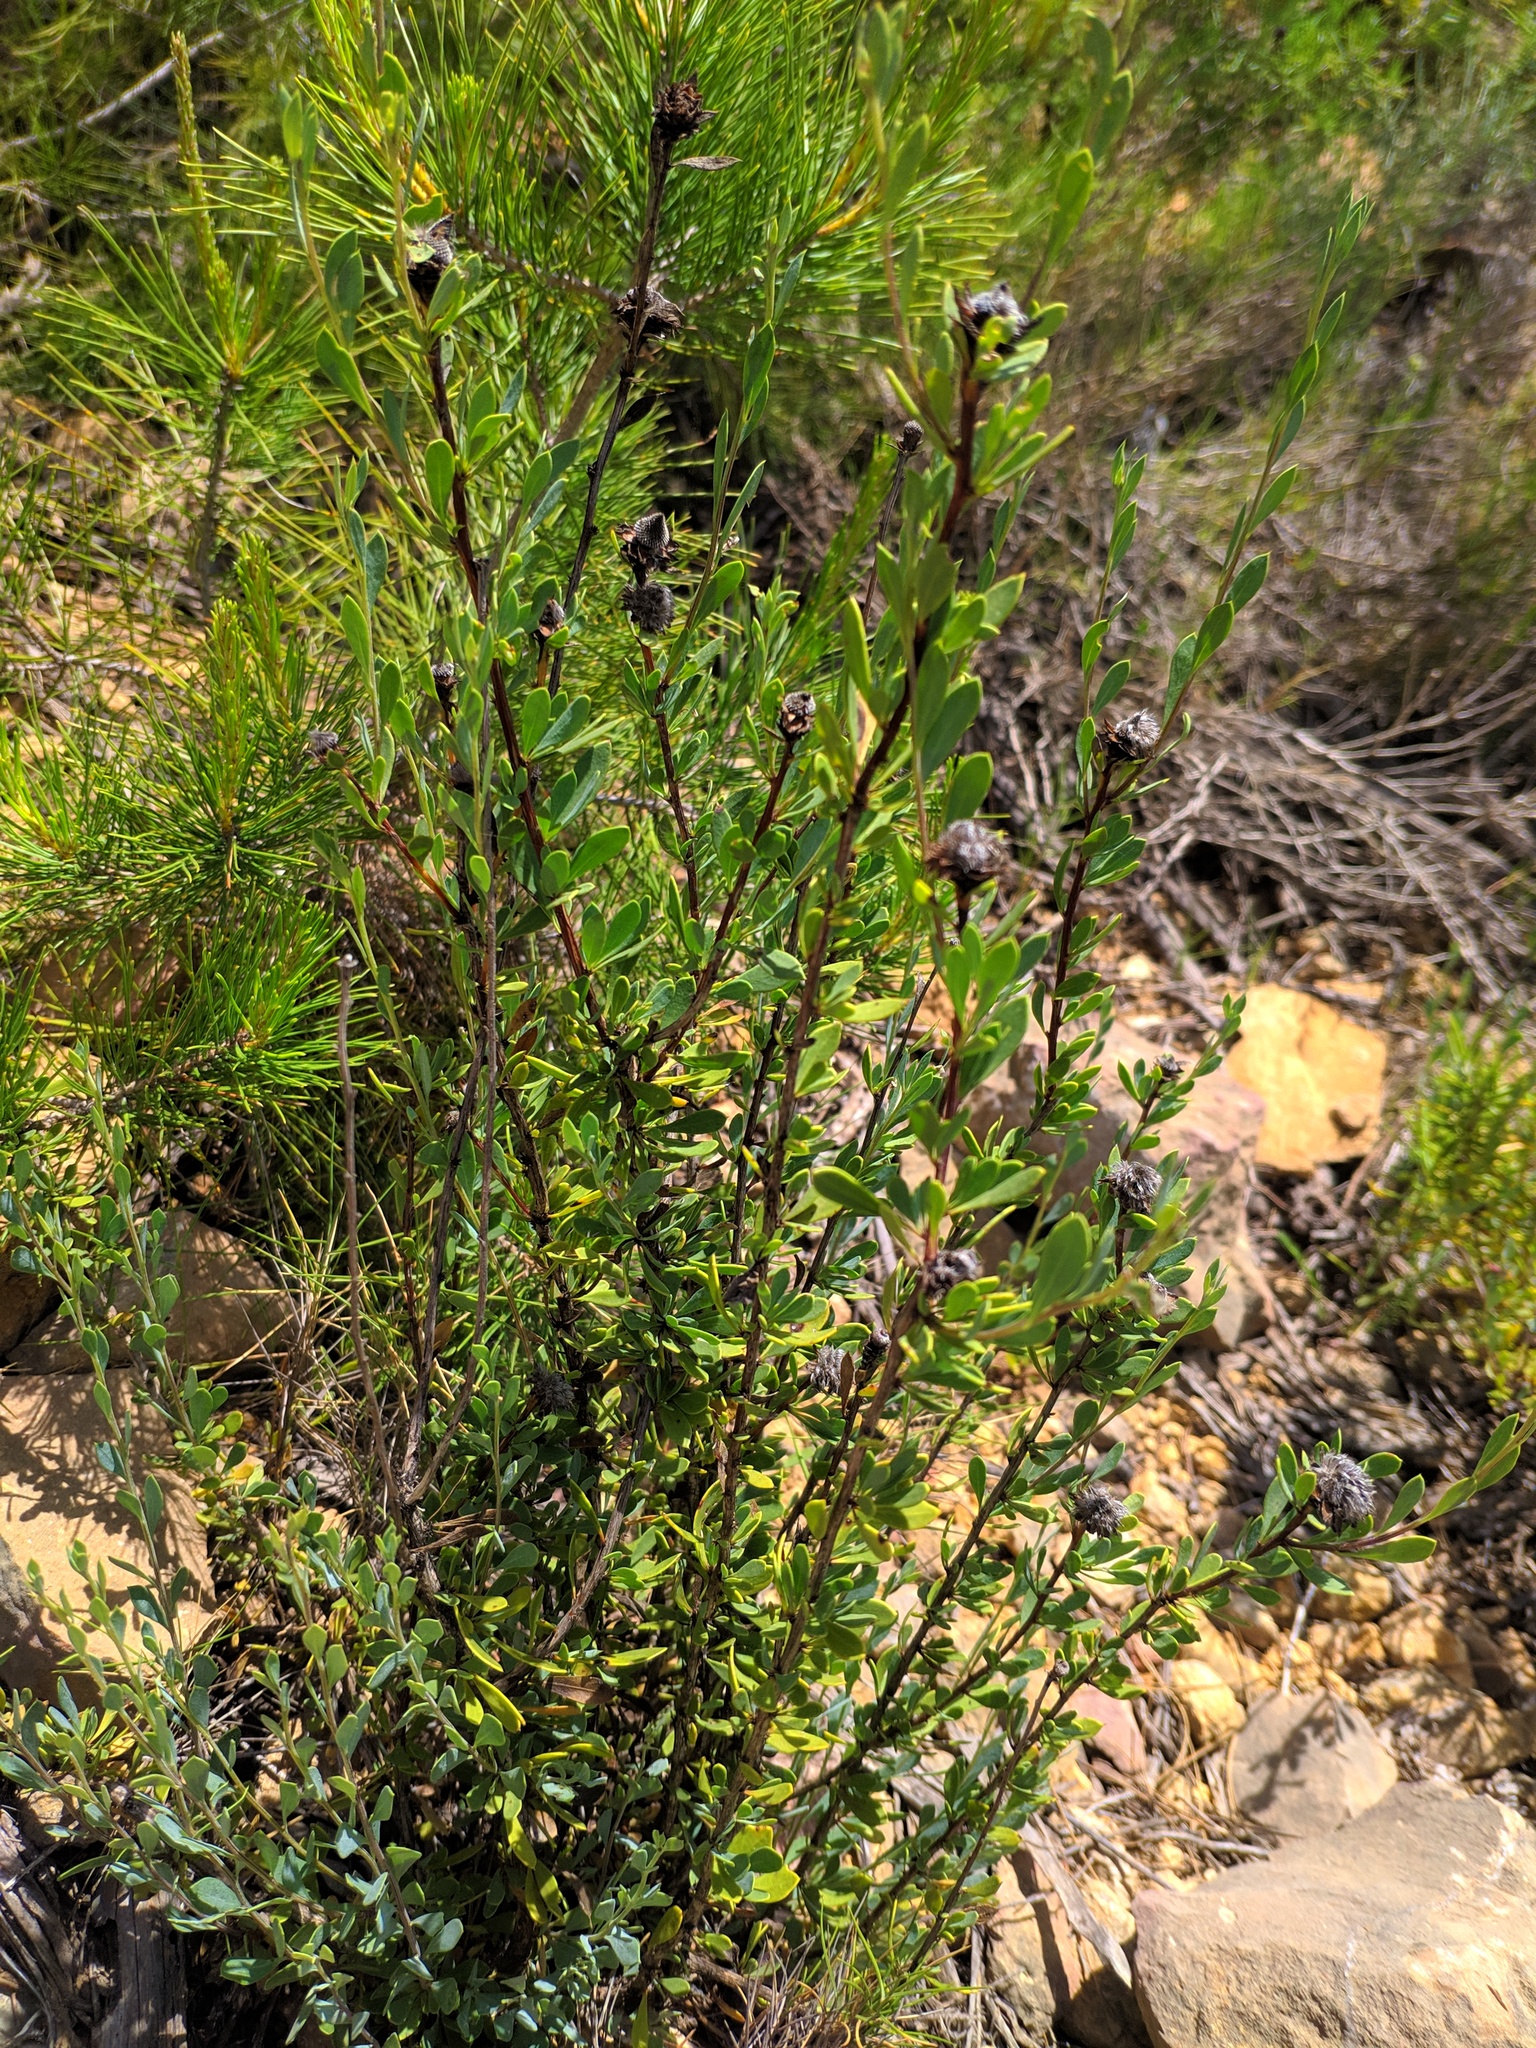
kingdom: Plantae
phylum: Tracheophyta
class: Magnoliopsida
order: Lamiales
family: Plantaginaceae
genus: Globularia
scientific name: Globularia alypum
